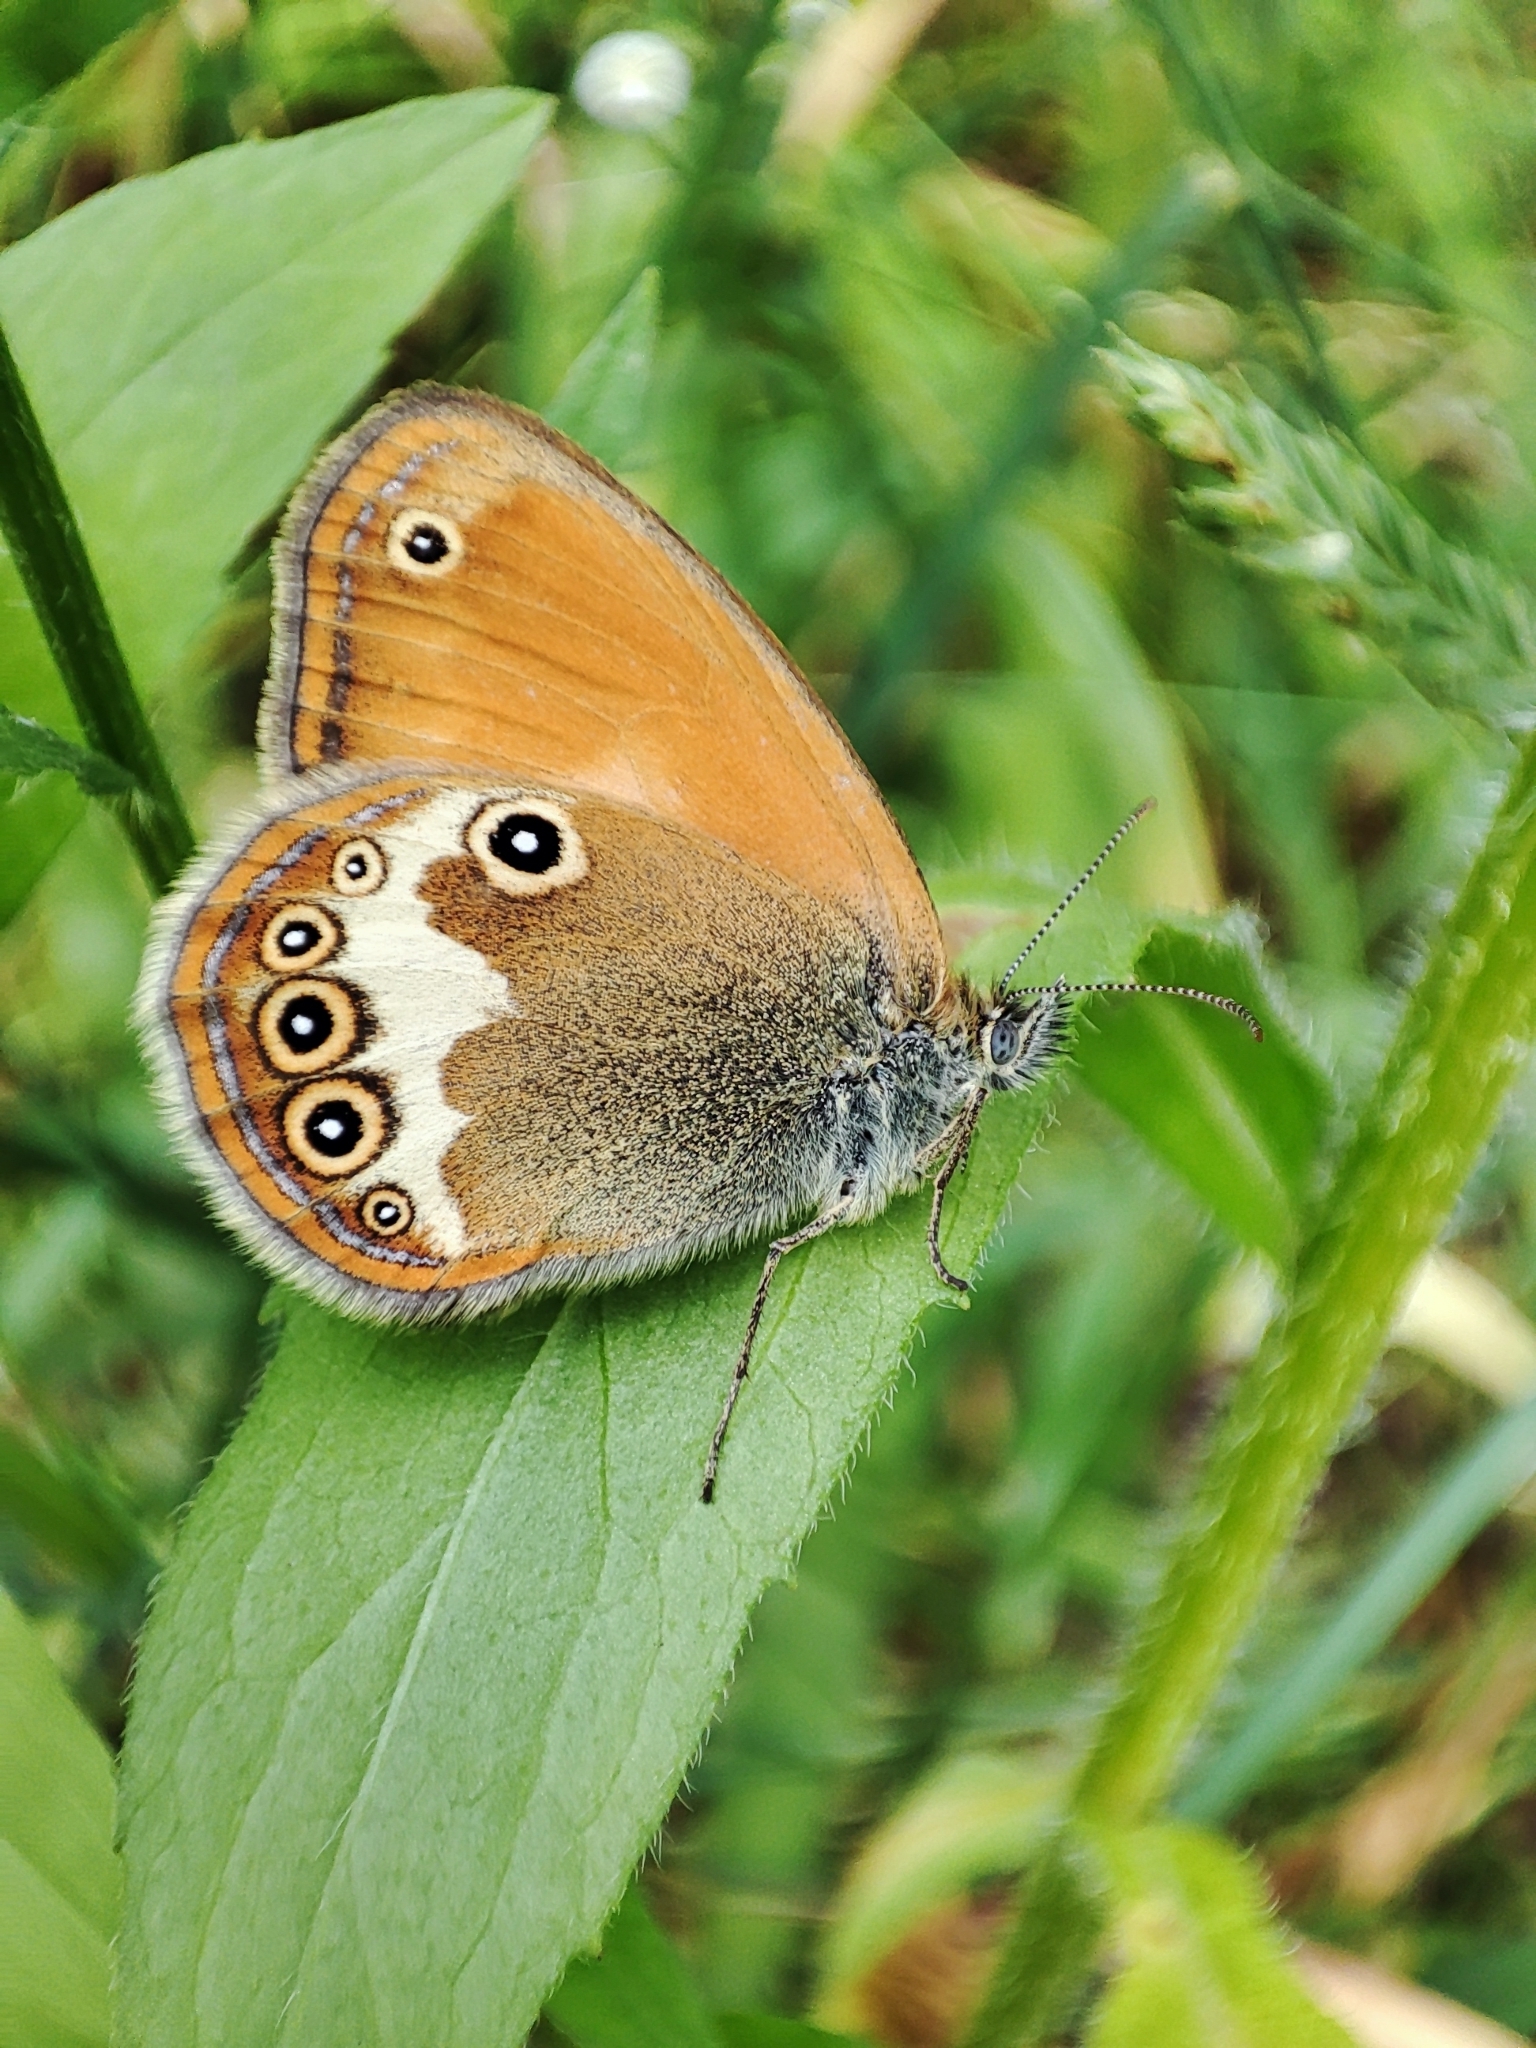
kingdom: Animalia
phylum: Arthropoda
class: Insecta
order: Lepidoptera
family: Nymphalidae
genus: Coenonympha
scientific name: Coenonympha arcania
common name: Pearly heath
